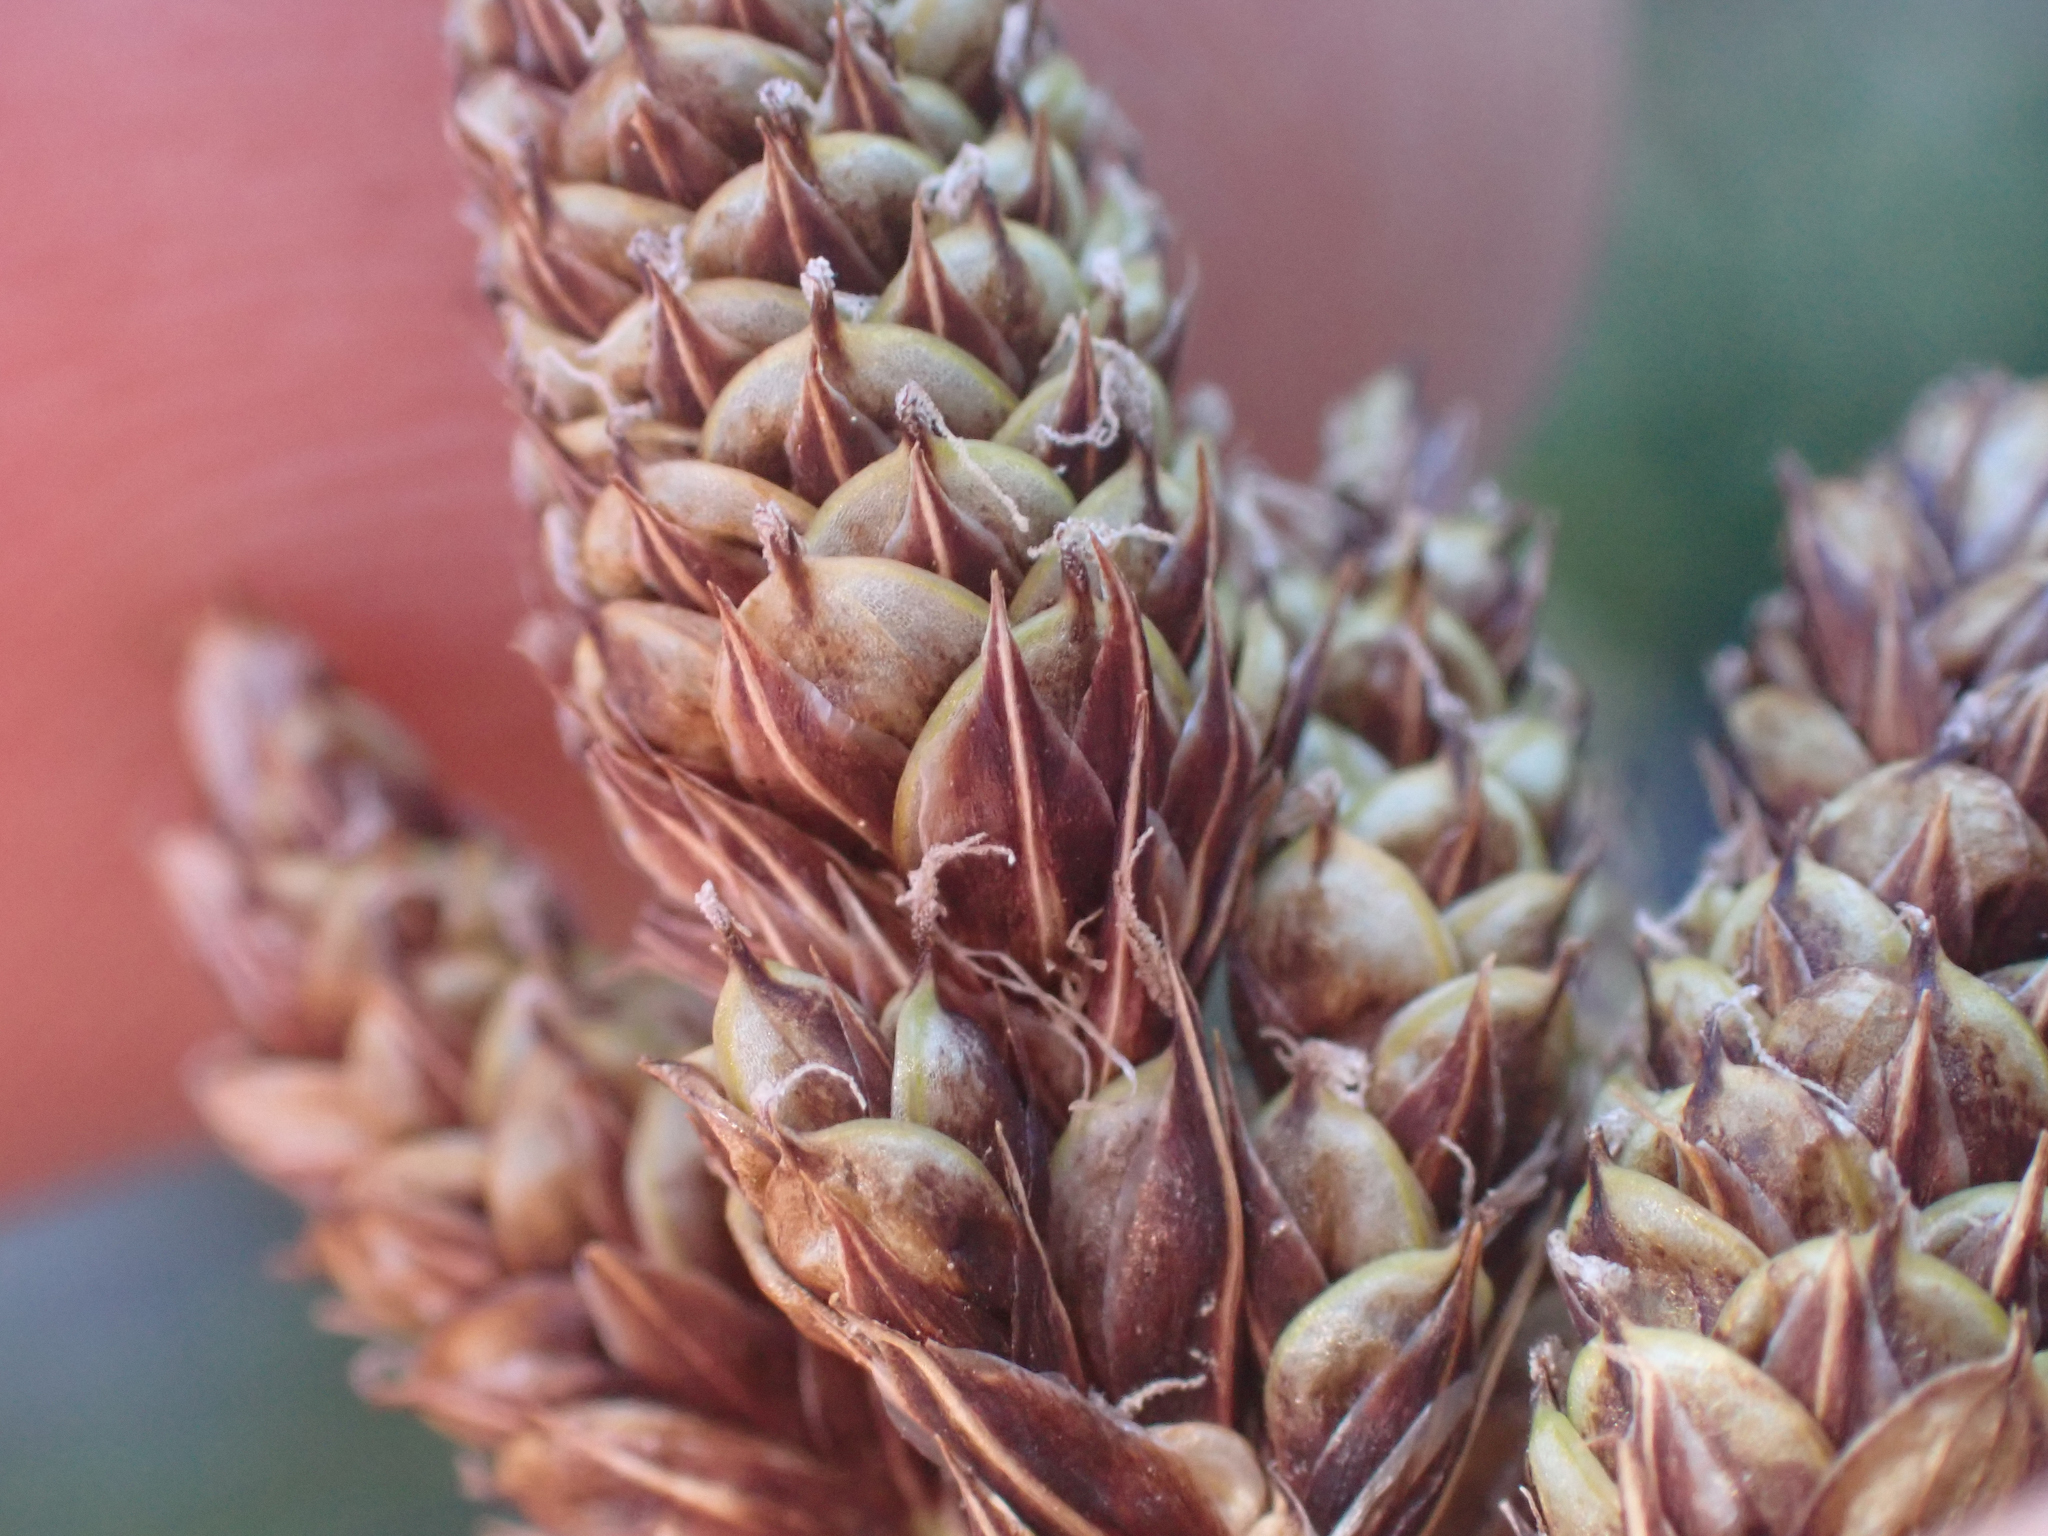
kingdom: Plantae
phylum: Tracheophyta
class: Liliopsida
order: Poales
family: Cyperaceae
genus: Carex
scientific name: Carex heteroneura
